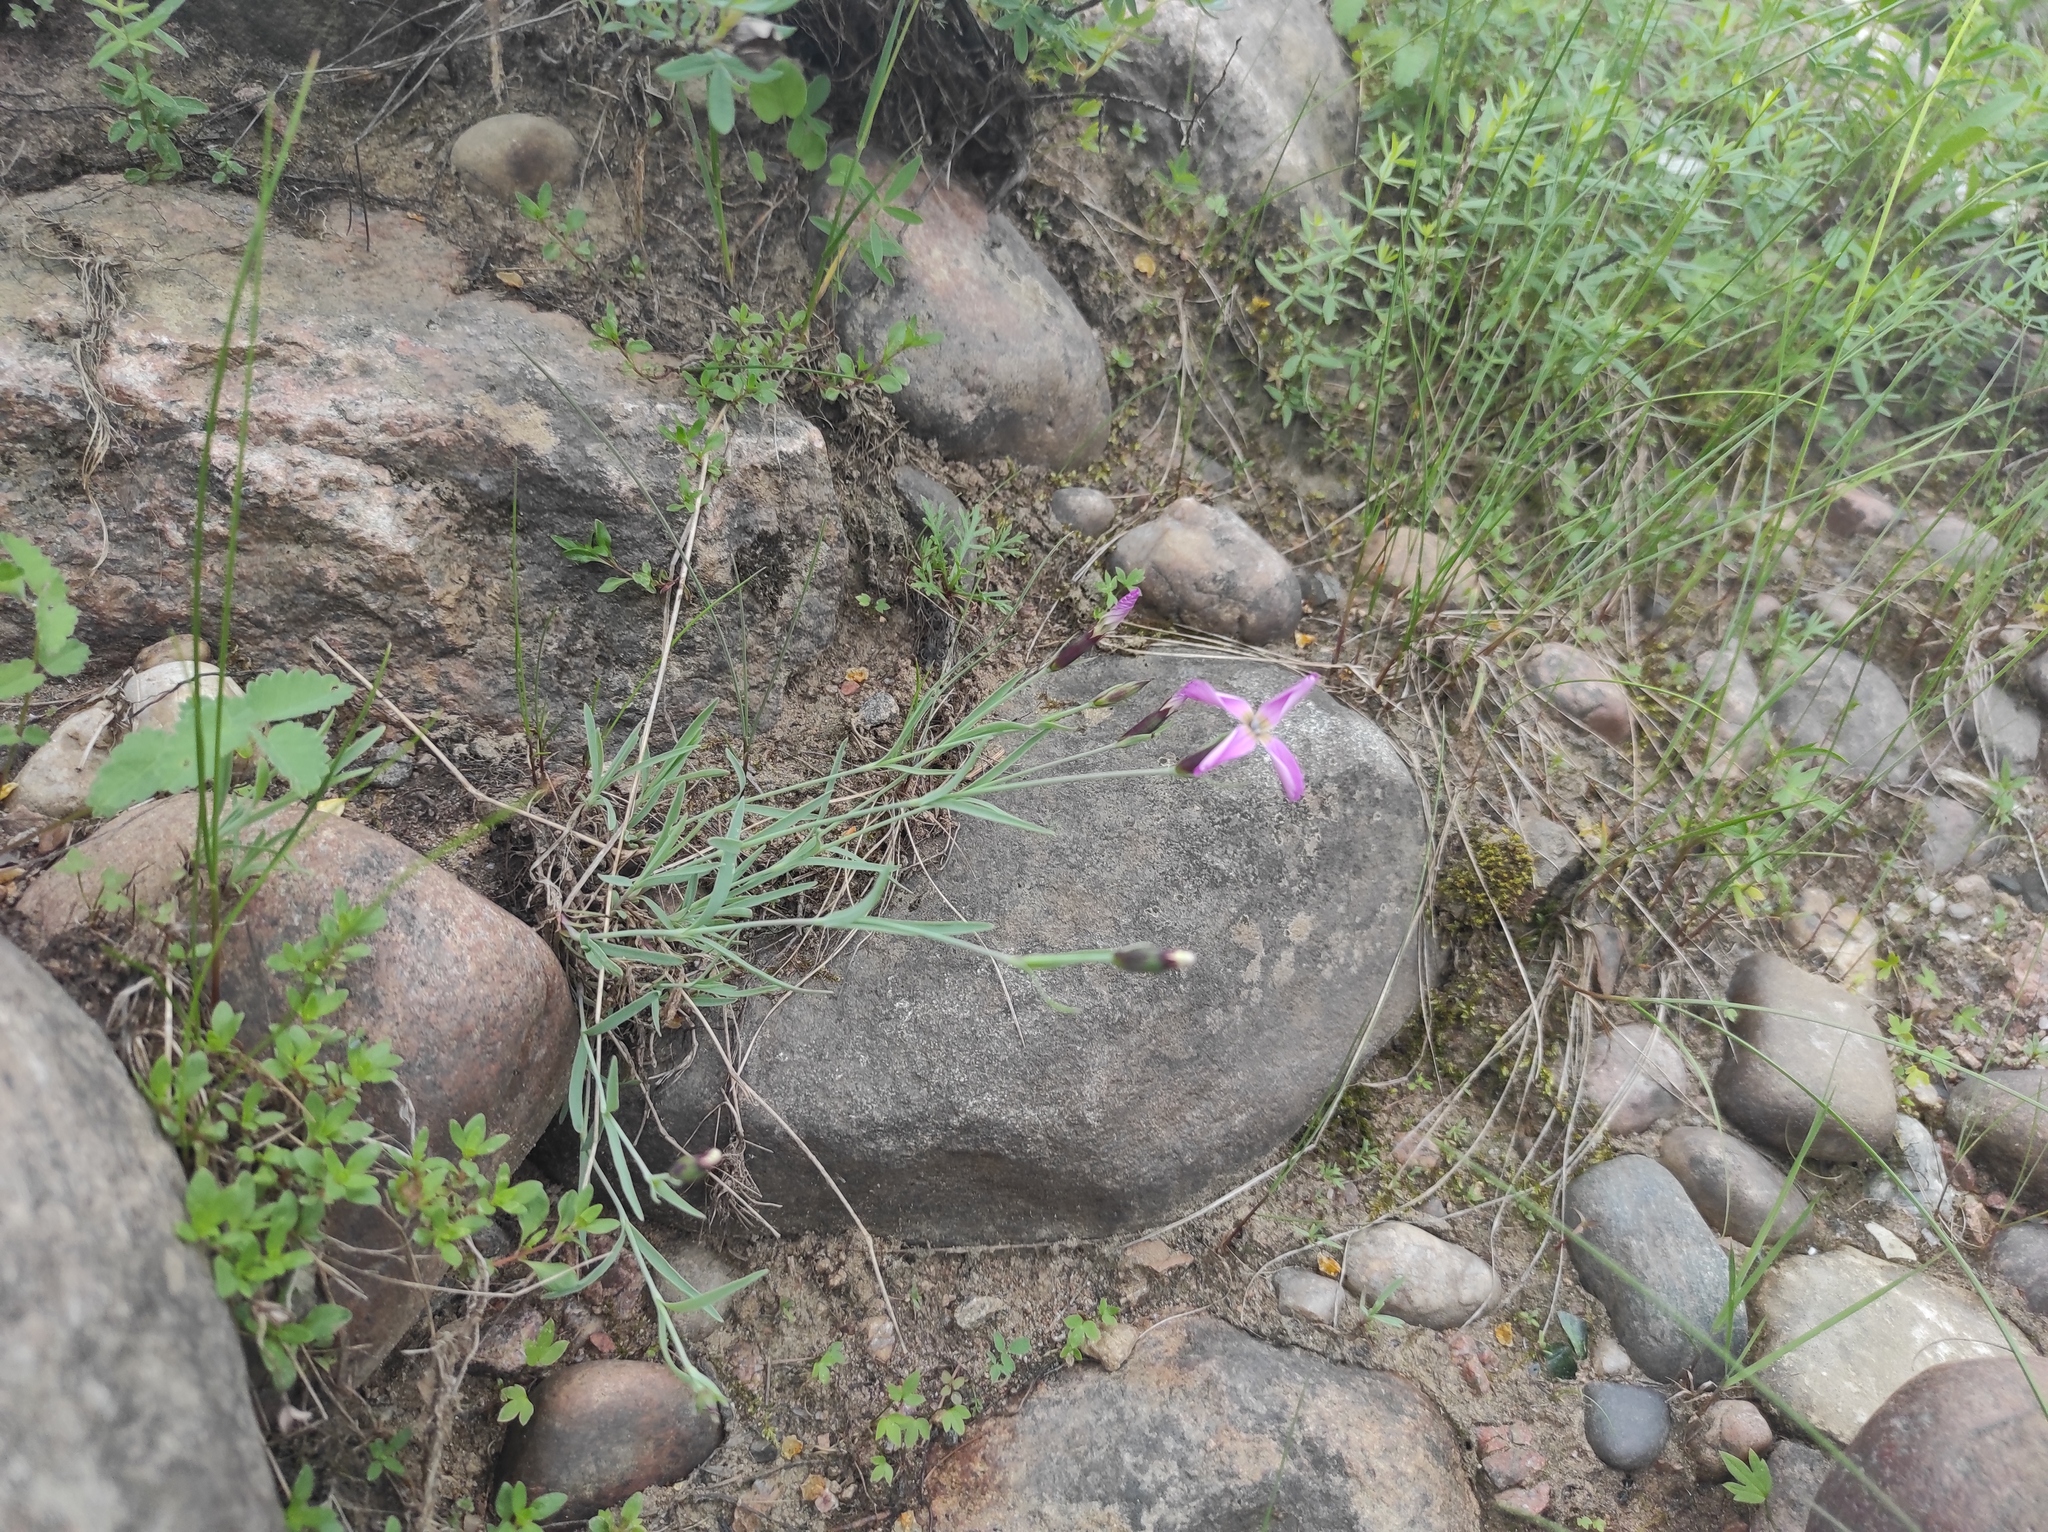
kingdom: Plantae
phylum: Tracheophyta
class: Magnoliopsida
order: Caryophyllales
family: Caryophyllaceae
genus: Dianthus
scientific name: Dianthus repens
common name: Northern pink
